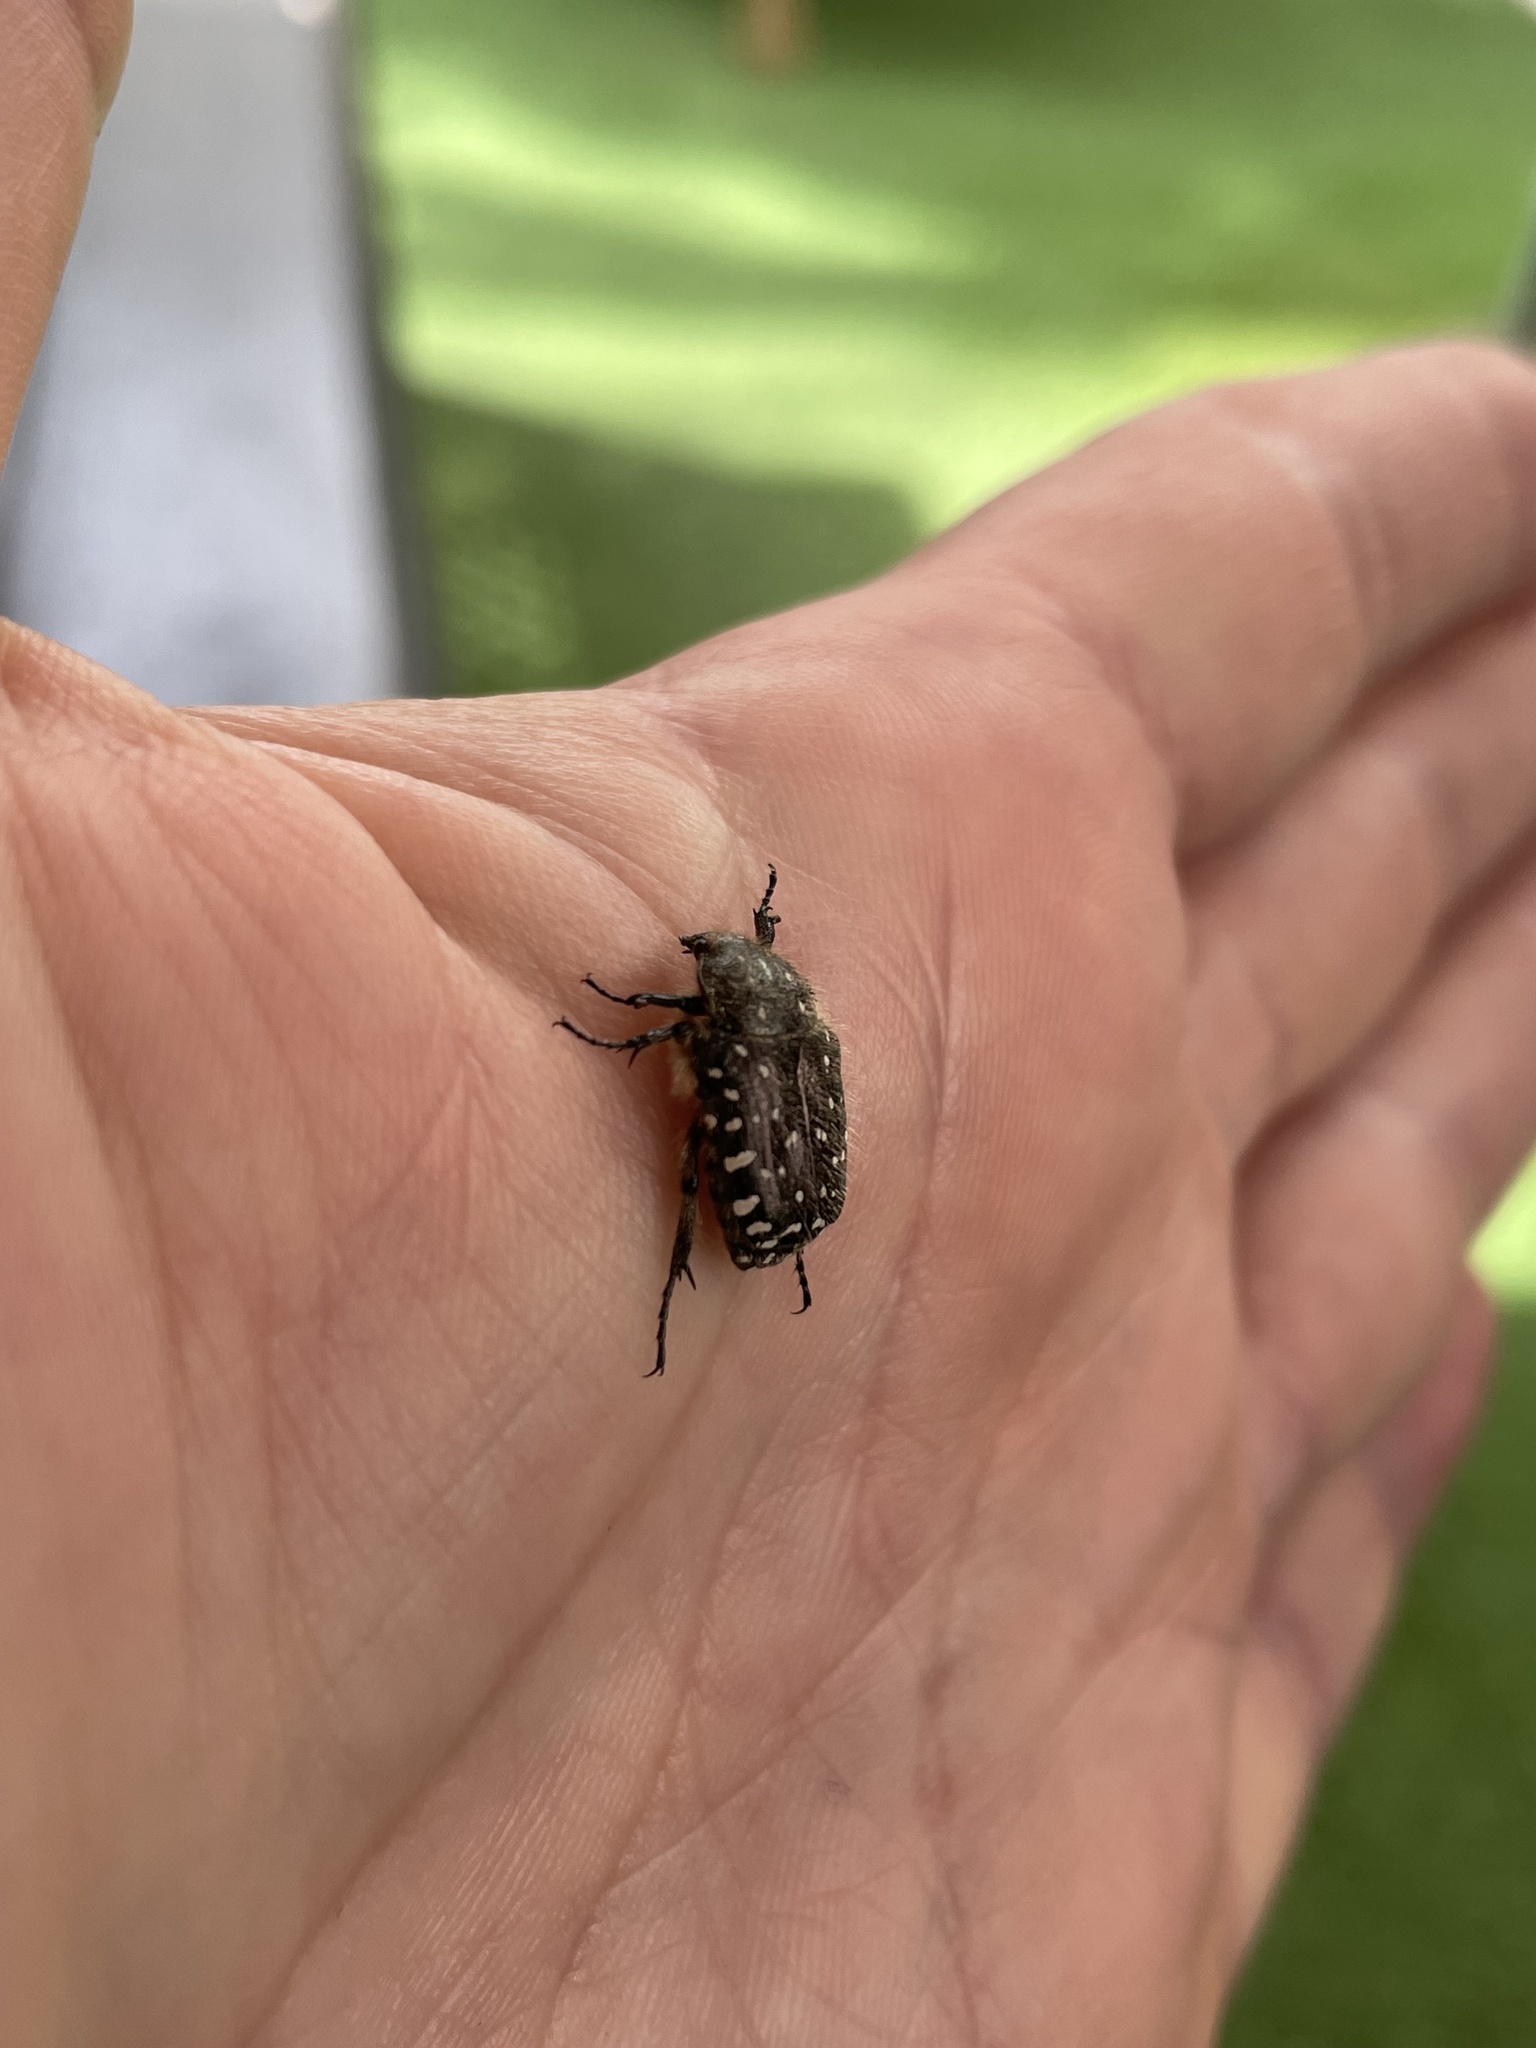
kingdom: Animalia
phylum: Arthropoda
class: Insecta
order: Coleoptera
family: Scarabaeidae
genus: Oxythyrea
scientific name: Oxythyrea funesta
